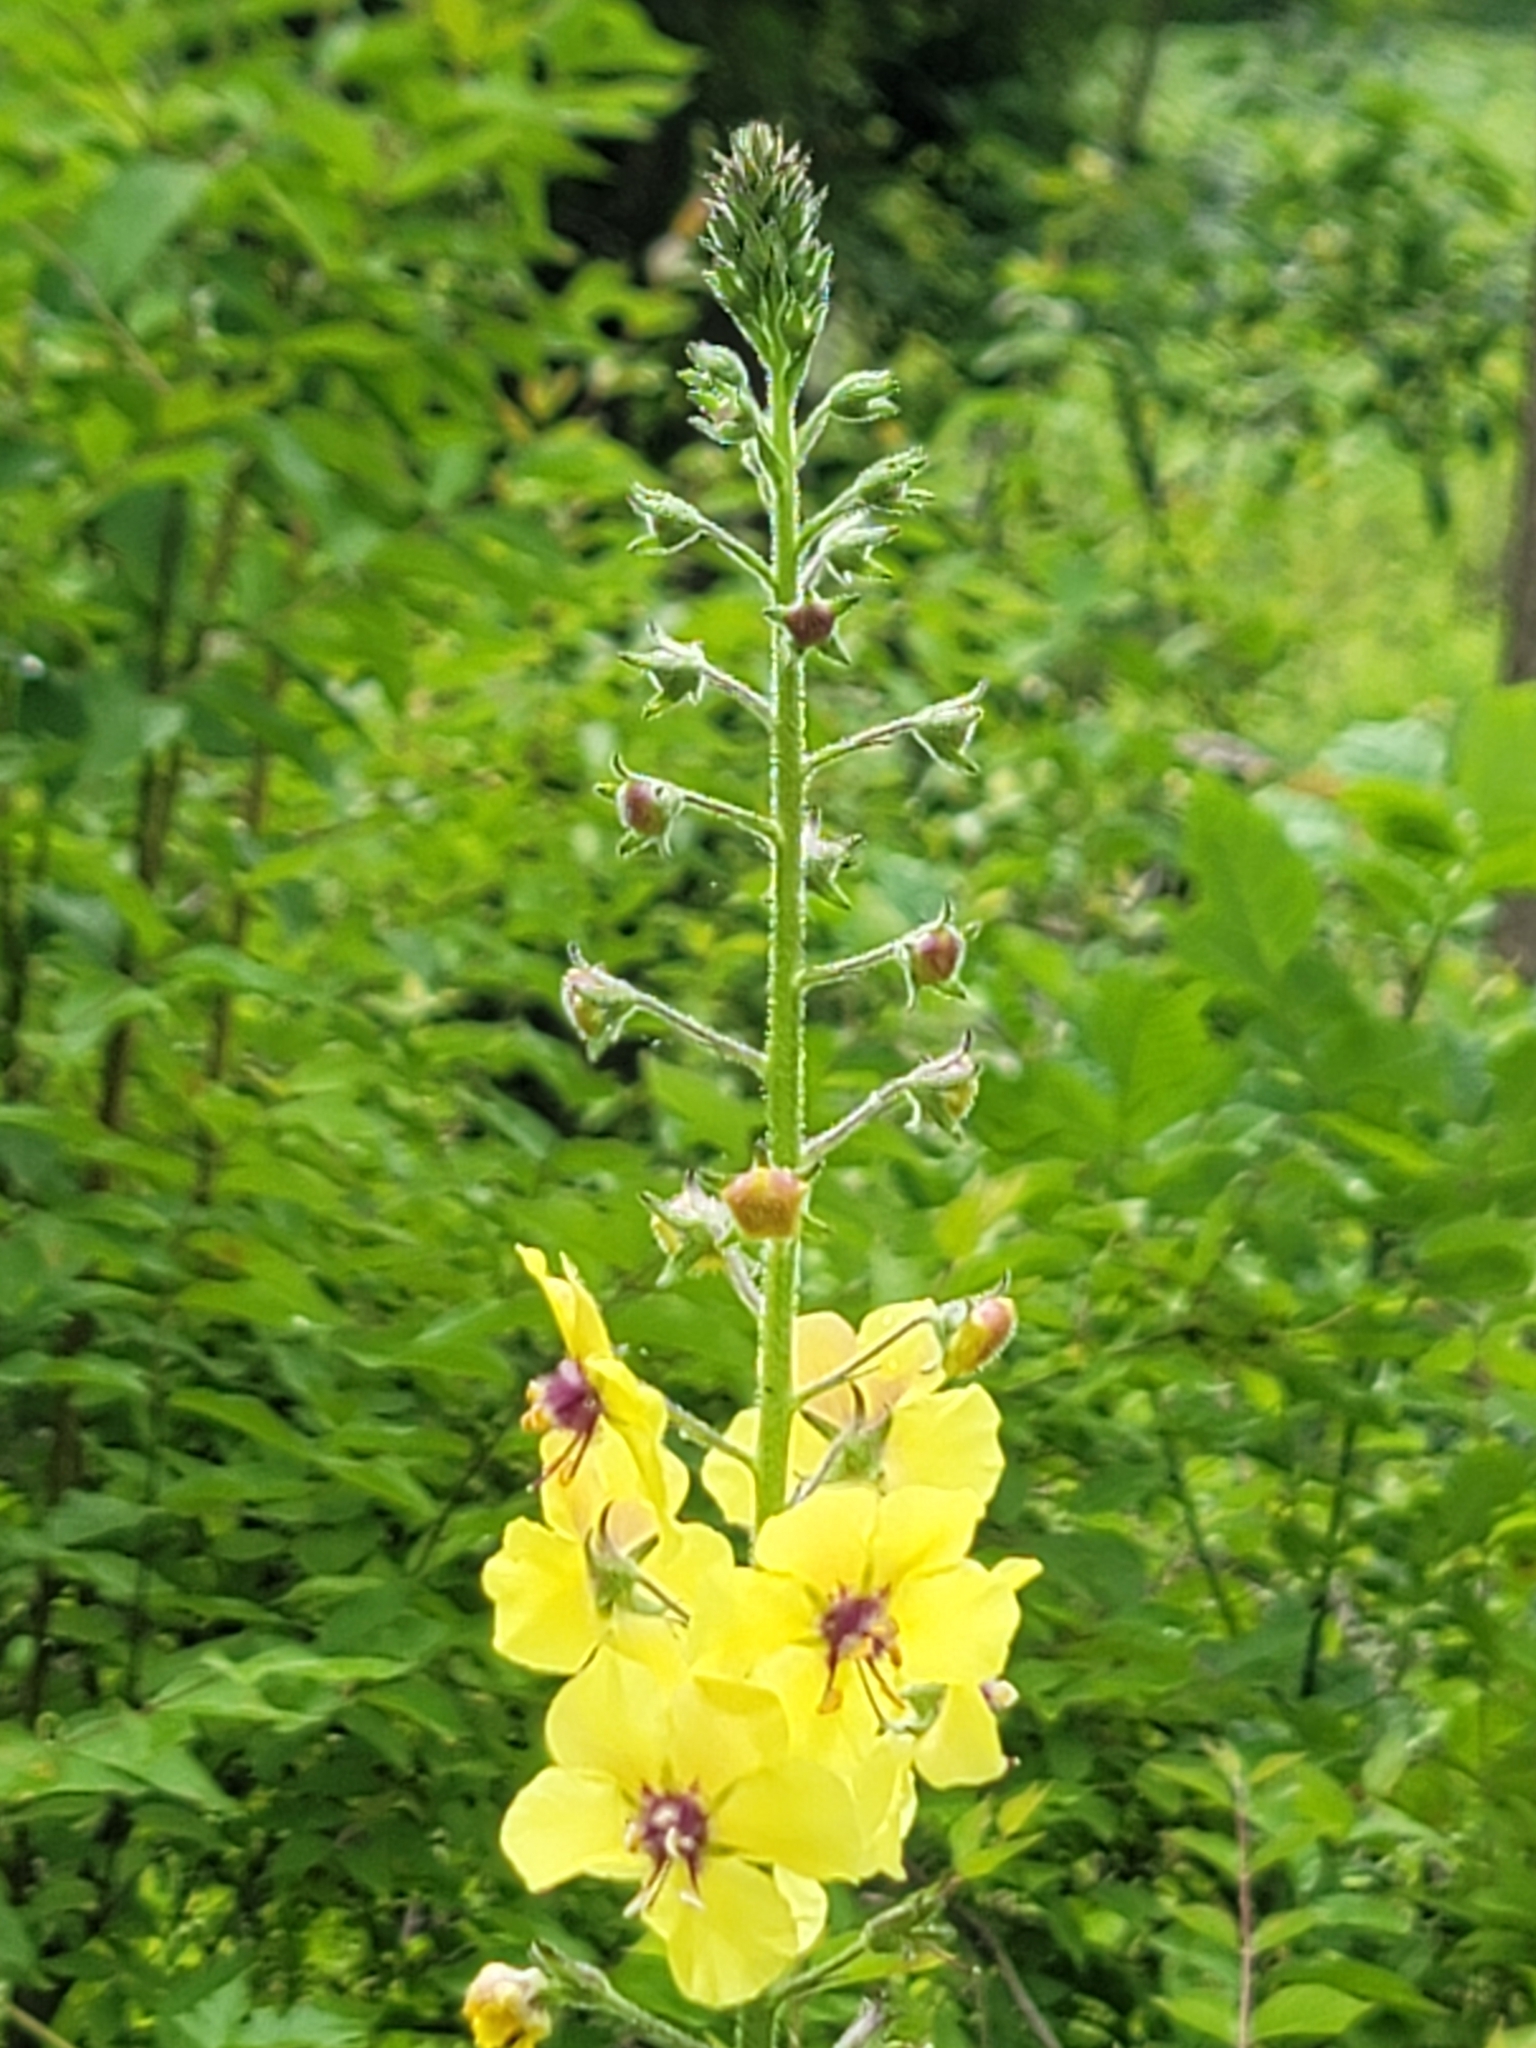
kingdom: Plantae
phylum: Tracheophyta
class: Magnoliopsida
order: Lamiales
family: Scrophulariaceae
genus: Verbascum
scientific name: Verbascum blattaria
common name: Moth mullein
